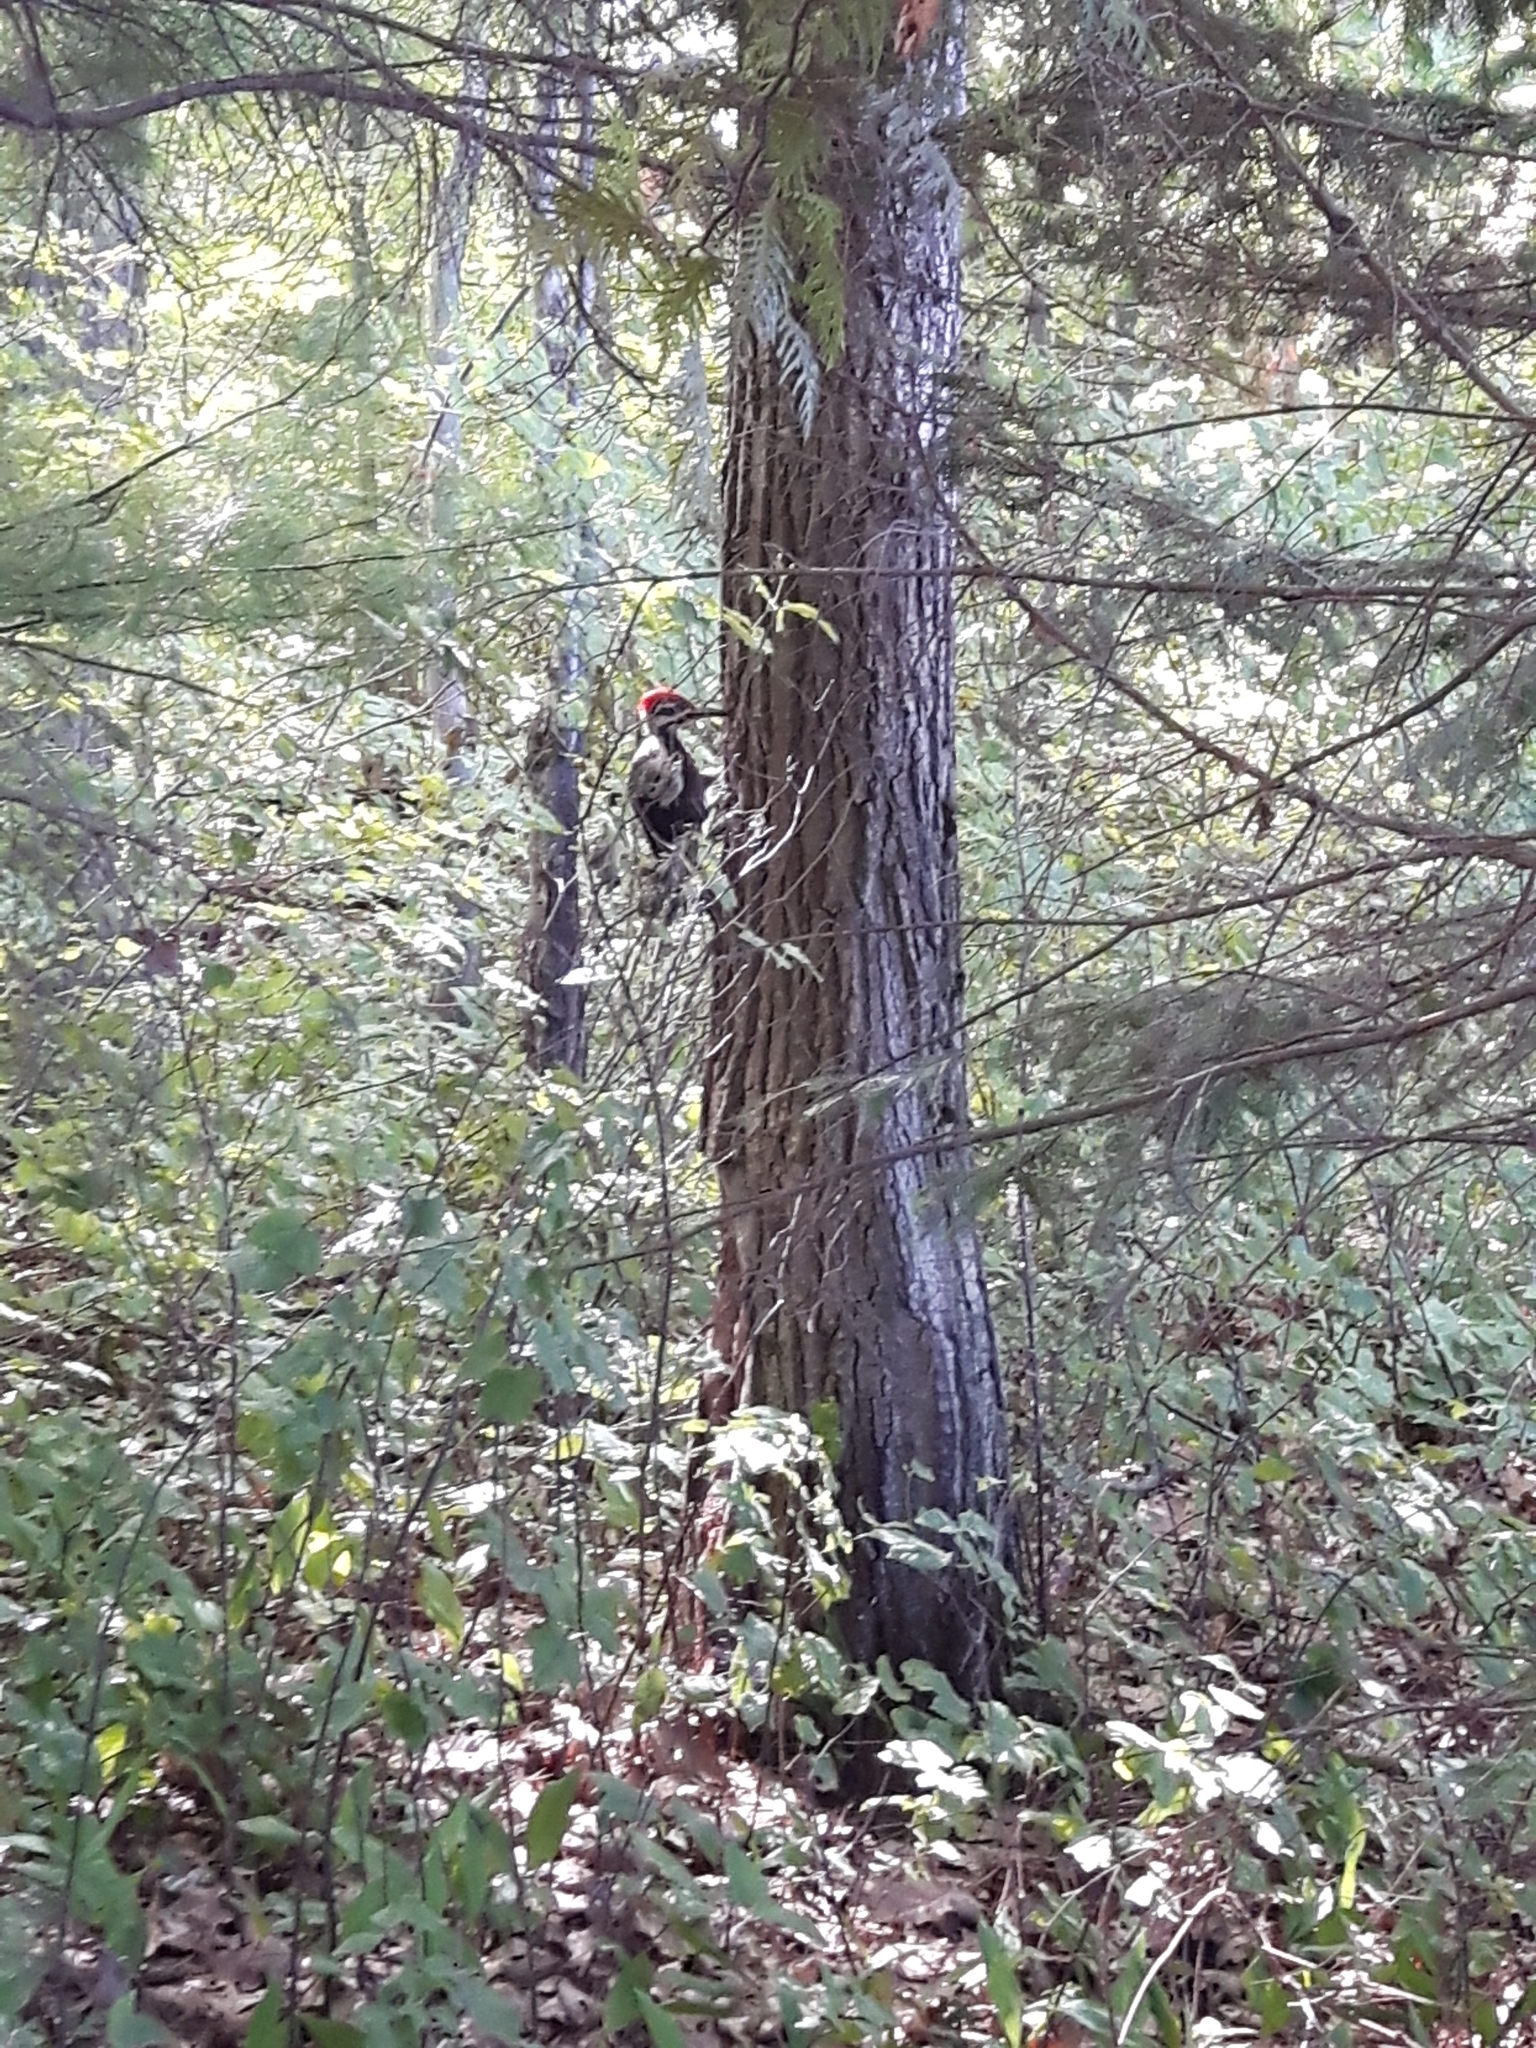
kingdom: Animalia
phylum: Chordata
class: Aves
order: Piciformes
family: Picidae
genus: Dryocopus
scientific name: Dryocopus pileatus
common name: Pileated woodpecker
